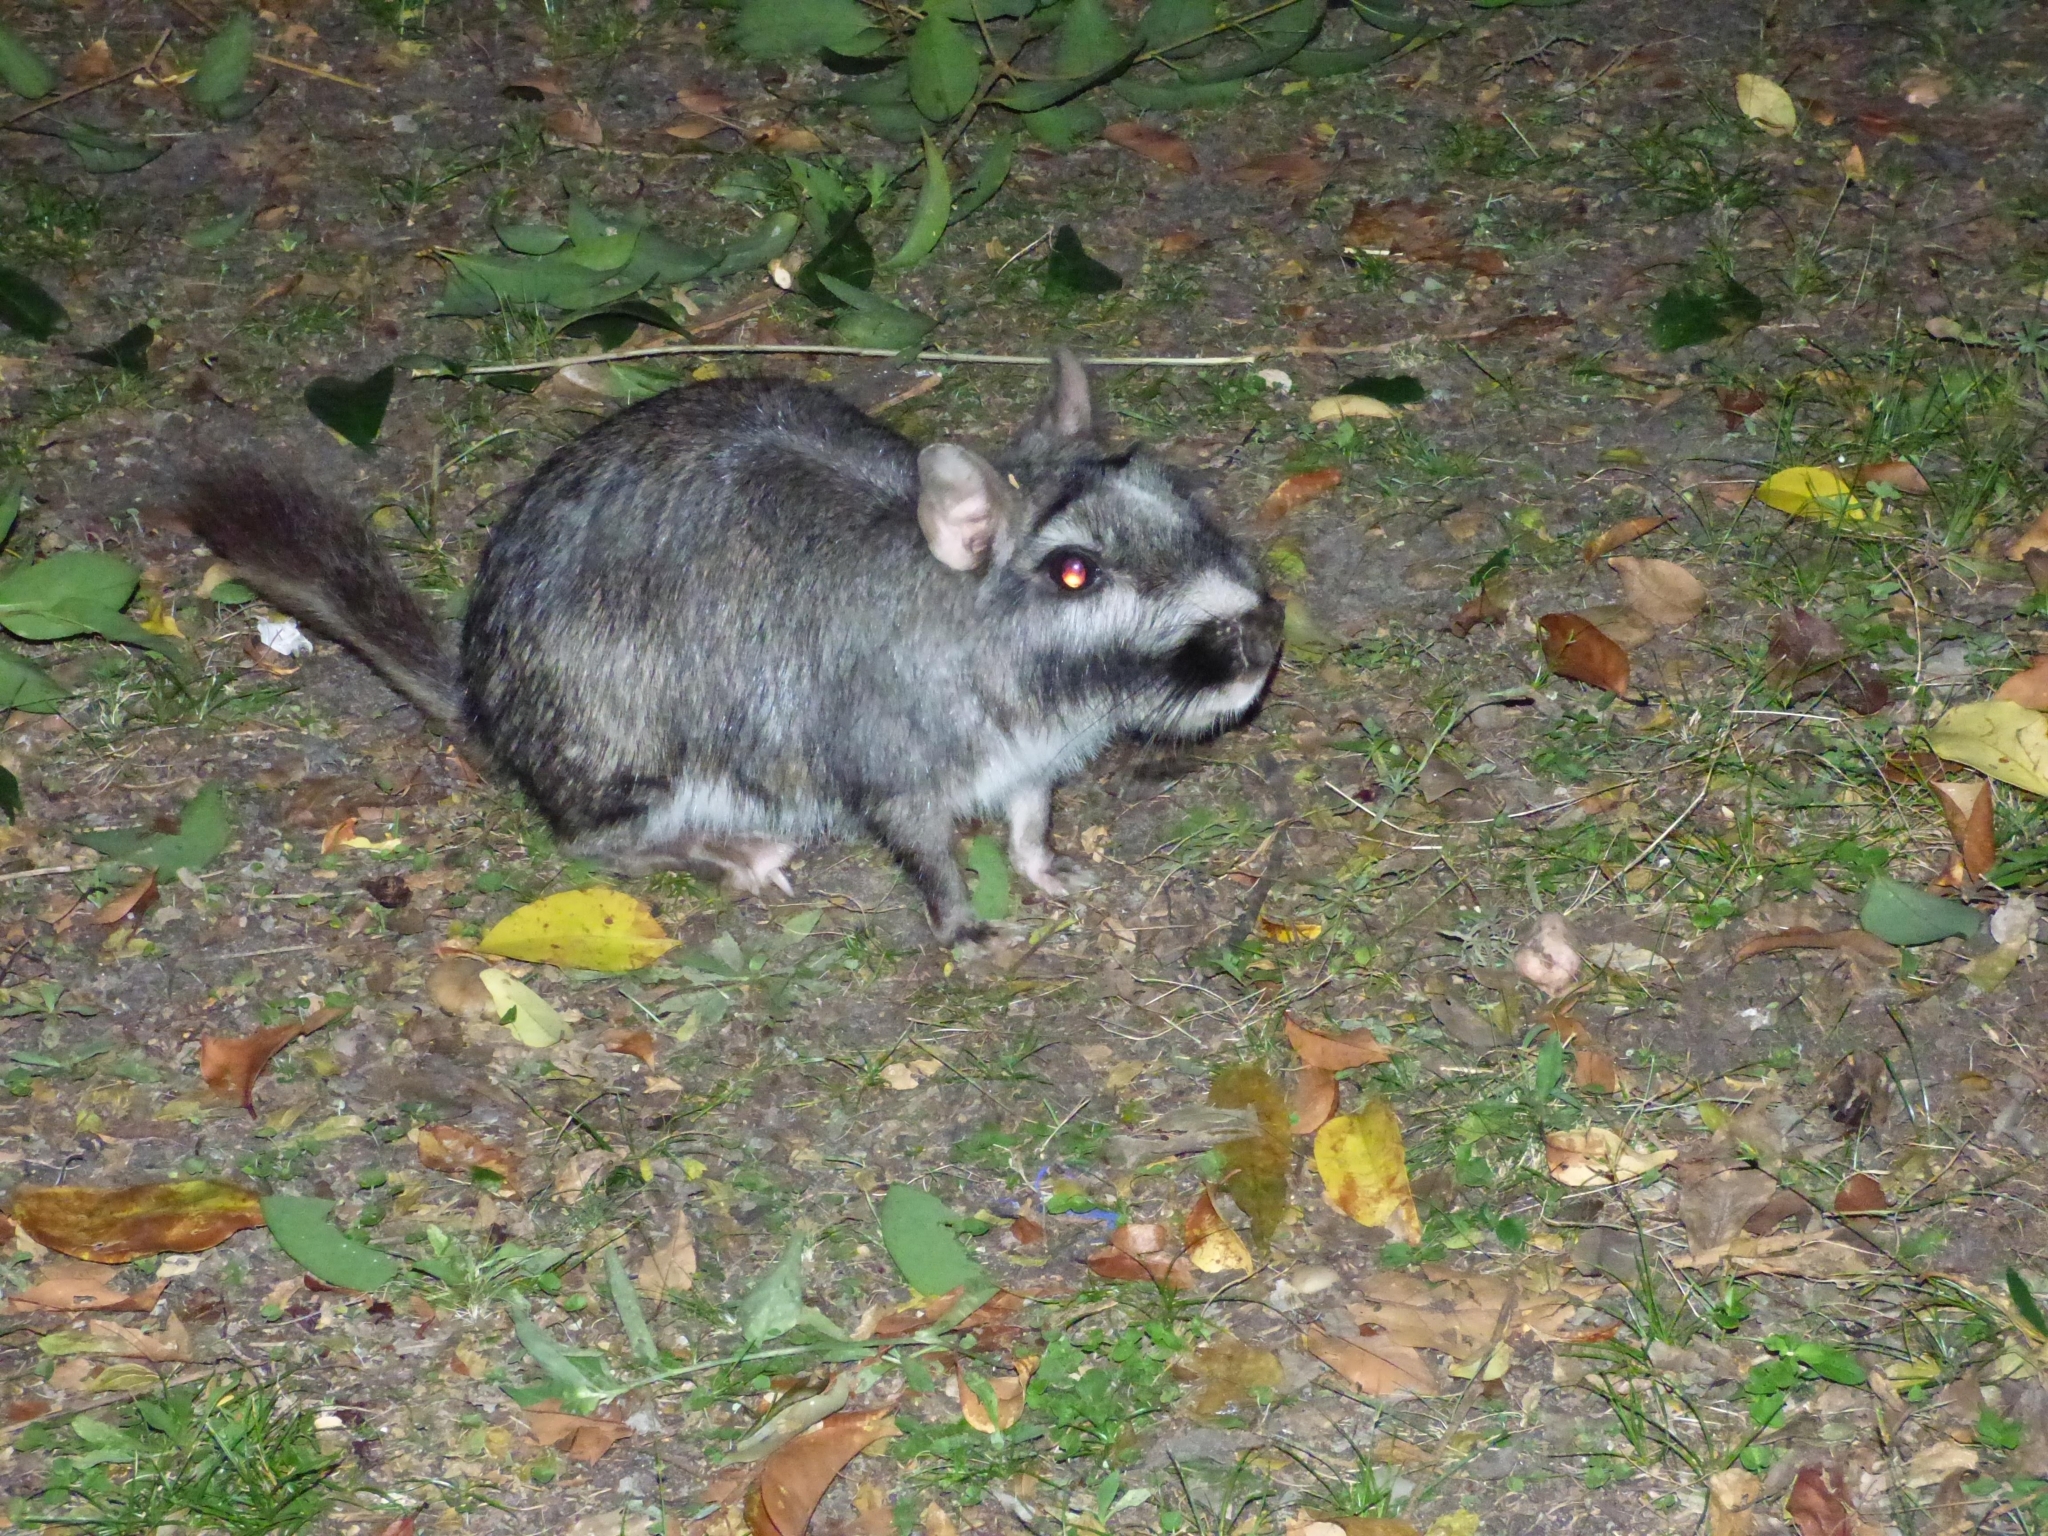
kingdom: Animalia
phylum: Chordata
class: Mammalia
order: Rodentia
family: Chinchillidae
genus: Lagostomus
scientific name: Lagostomus maximus
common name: Plains viscacha
